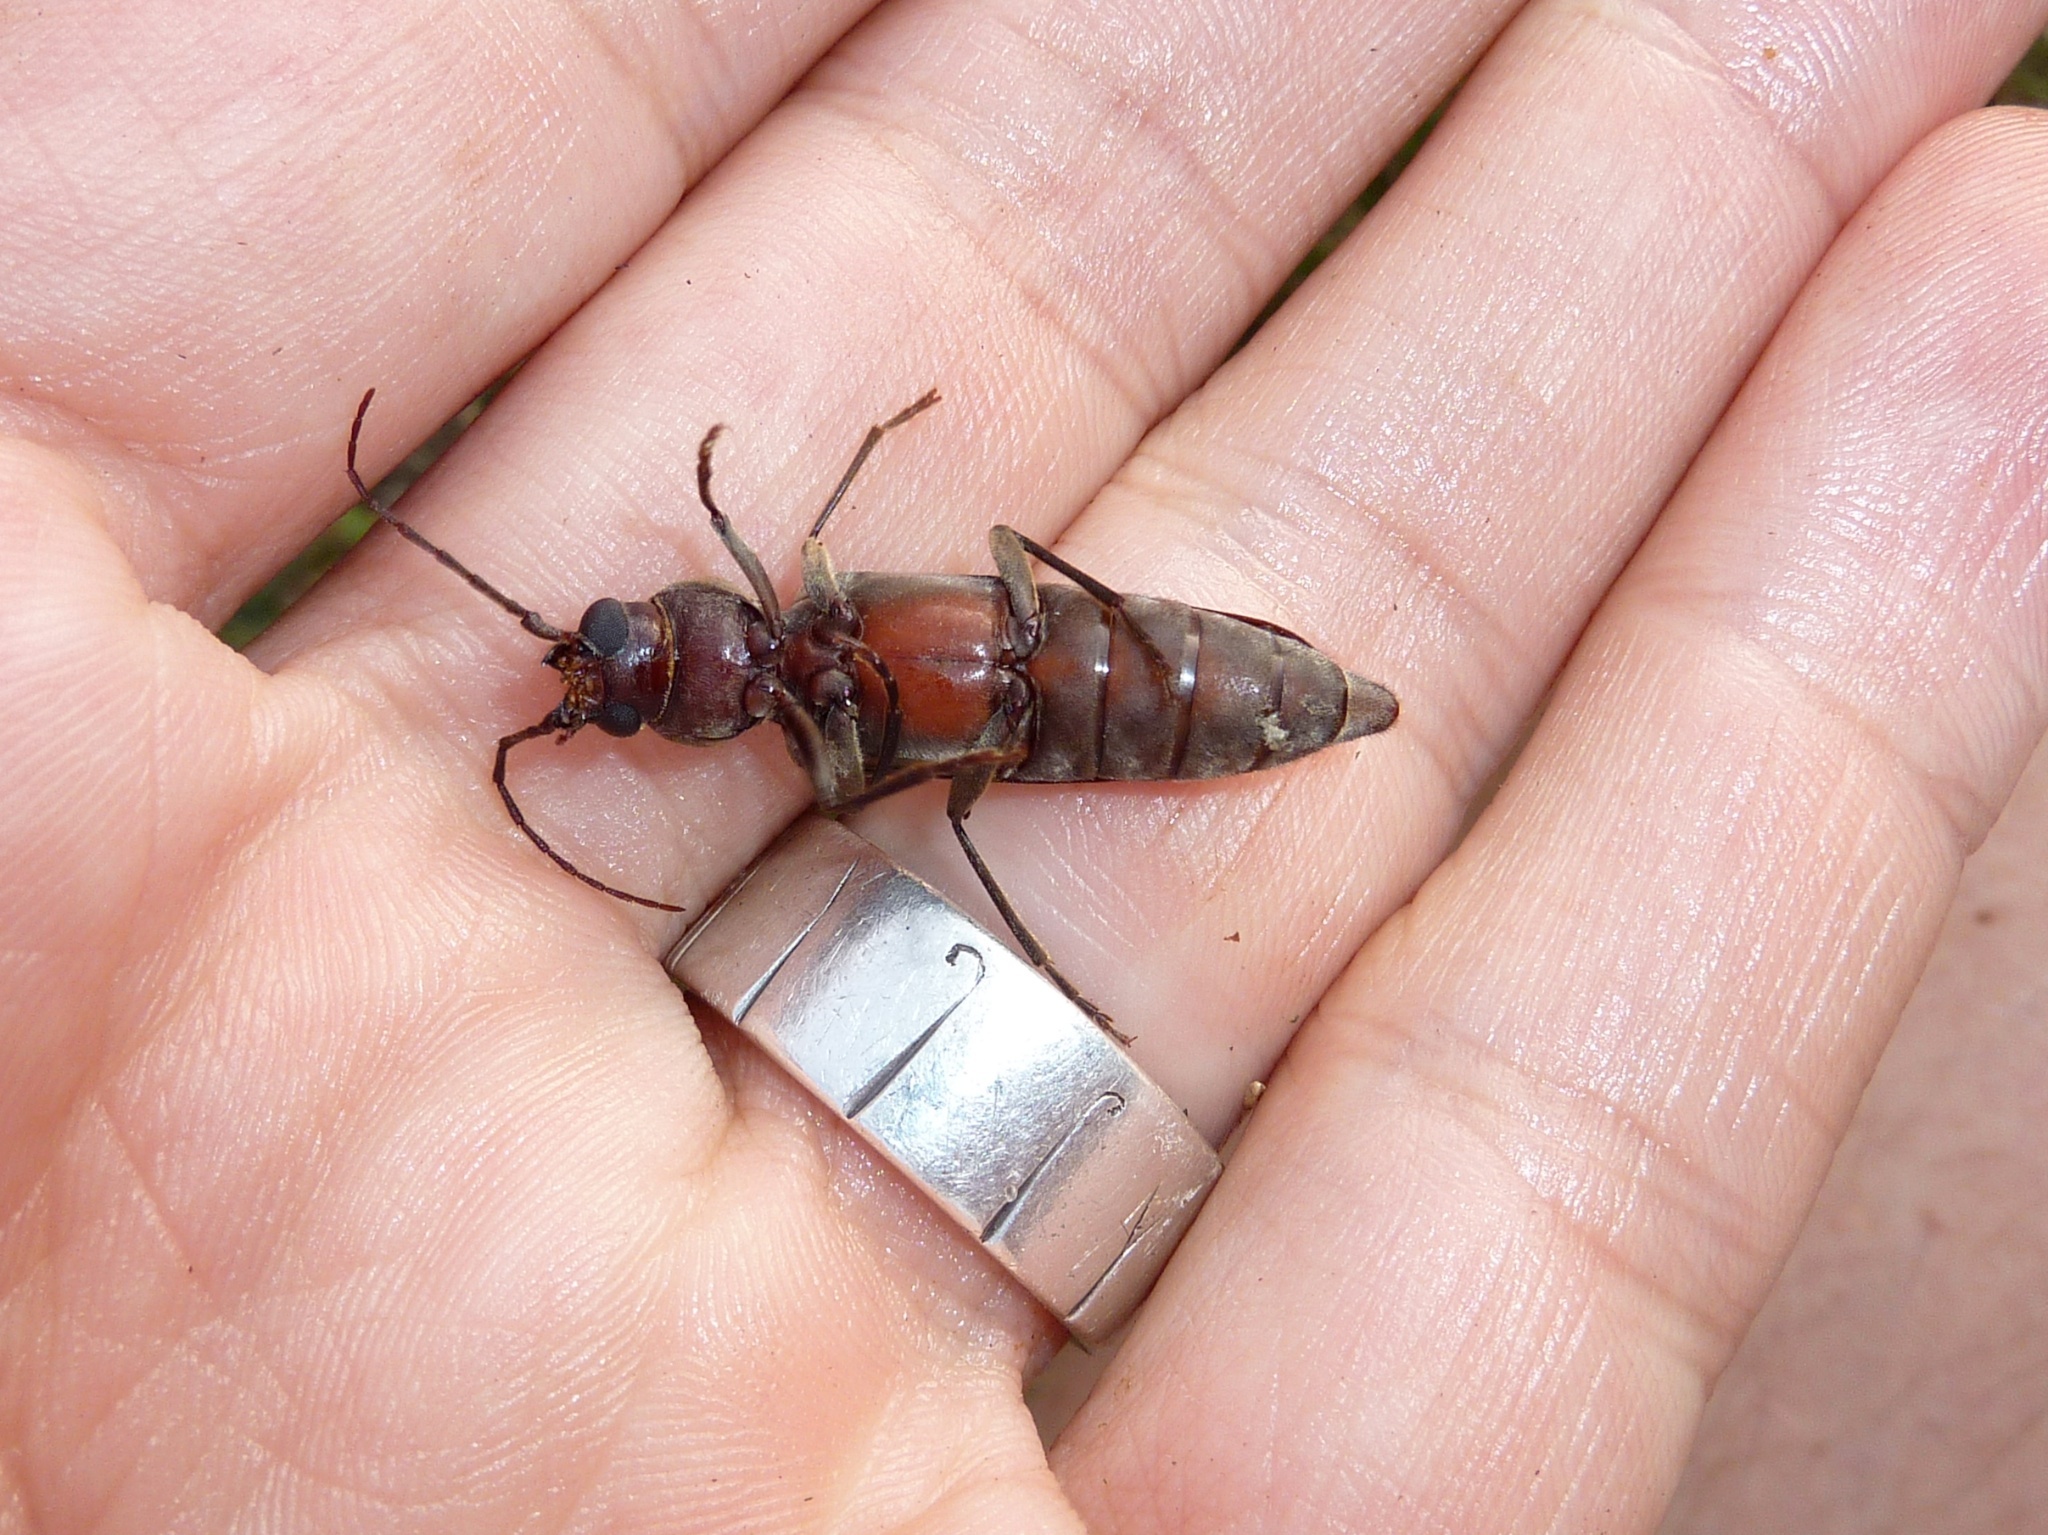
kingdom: Animalia
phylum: Arthropoda
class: Insecta
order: Coleoptera
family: Cerambycidae
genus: Arhopalus
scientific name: Arhopalus ferus
